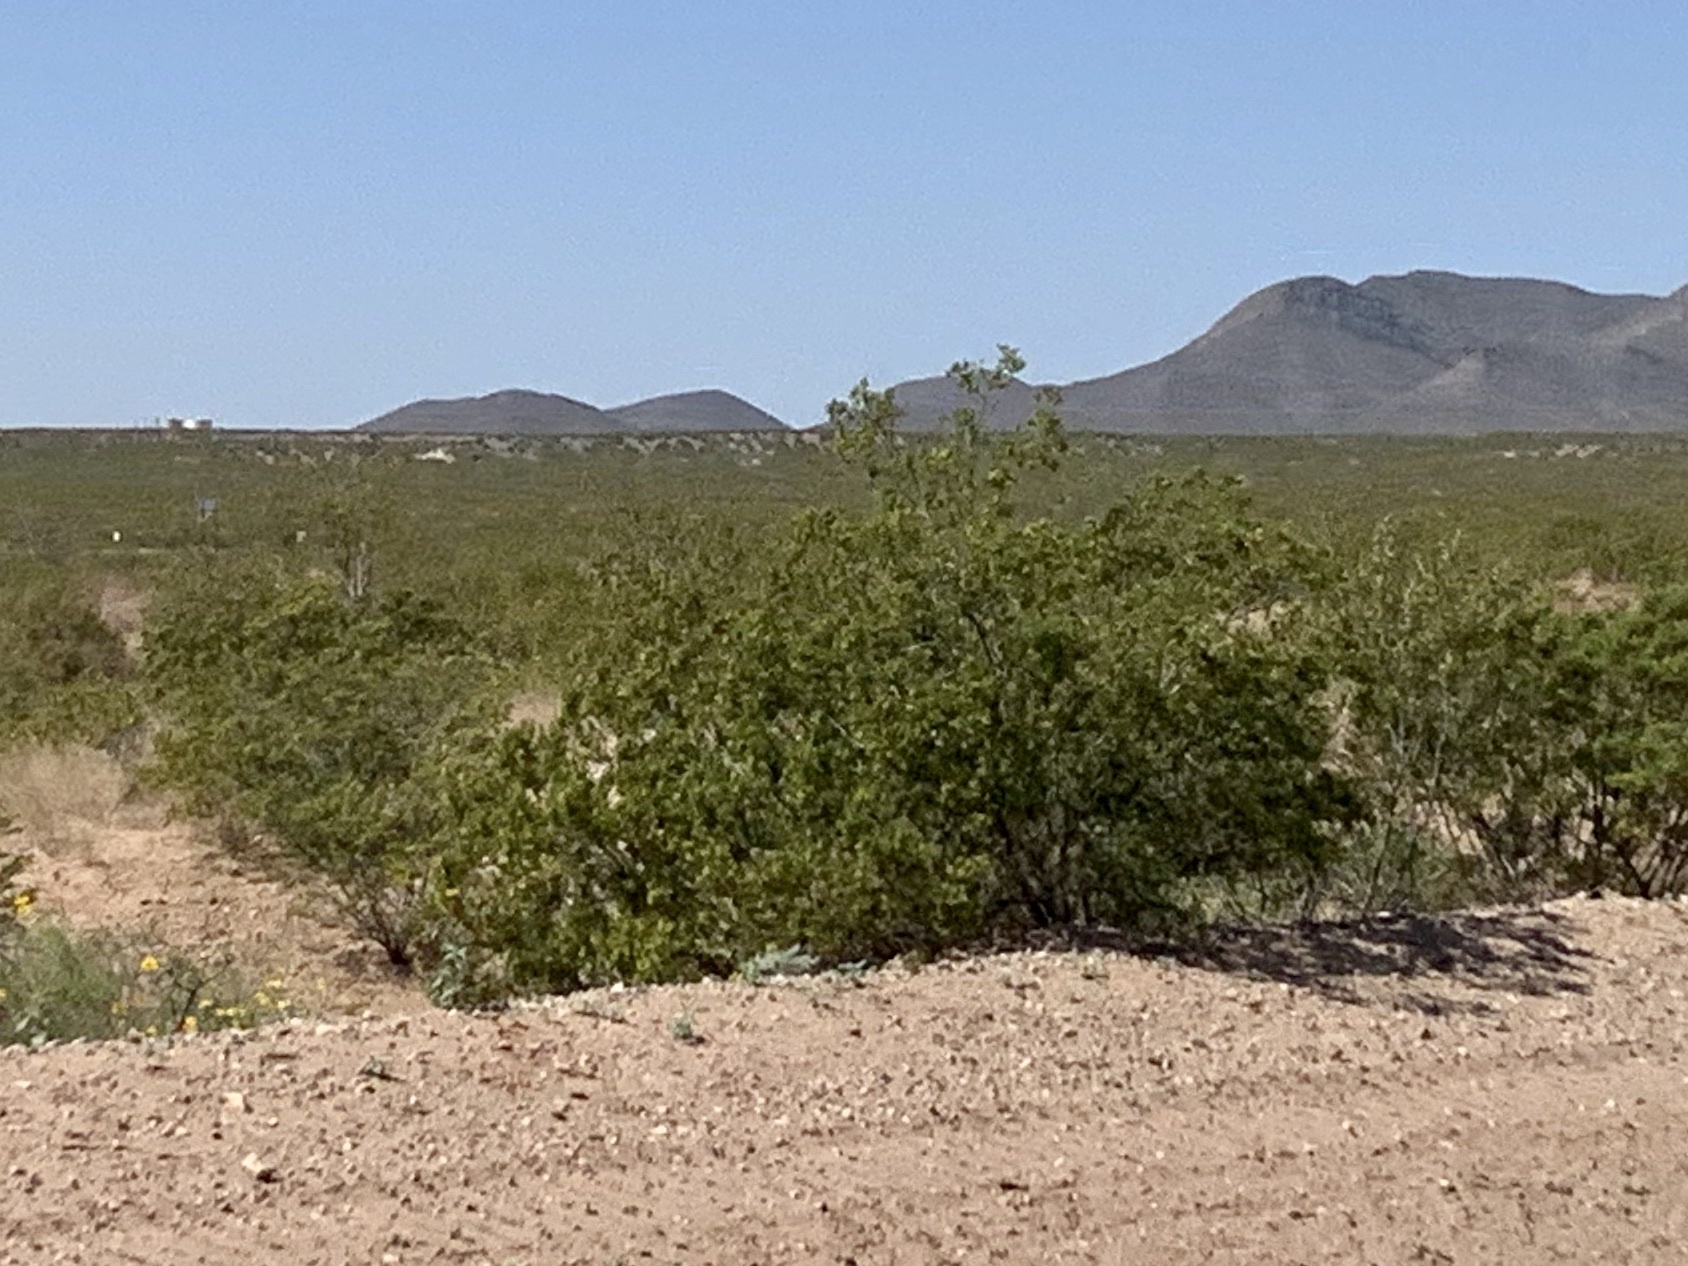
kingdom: Plantae
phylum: Tracheophyta
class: Magnoliopsida
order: Zygophyllales
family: Zygophyllaceae
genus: Larrea
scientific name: Larrea tridentata
